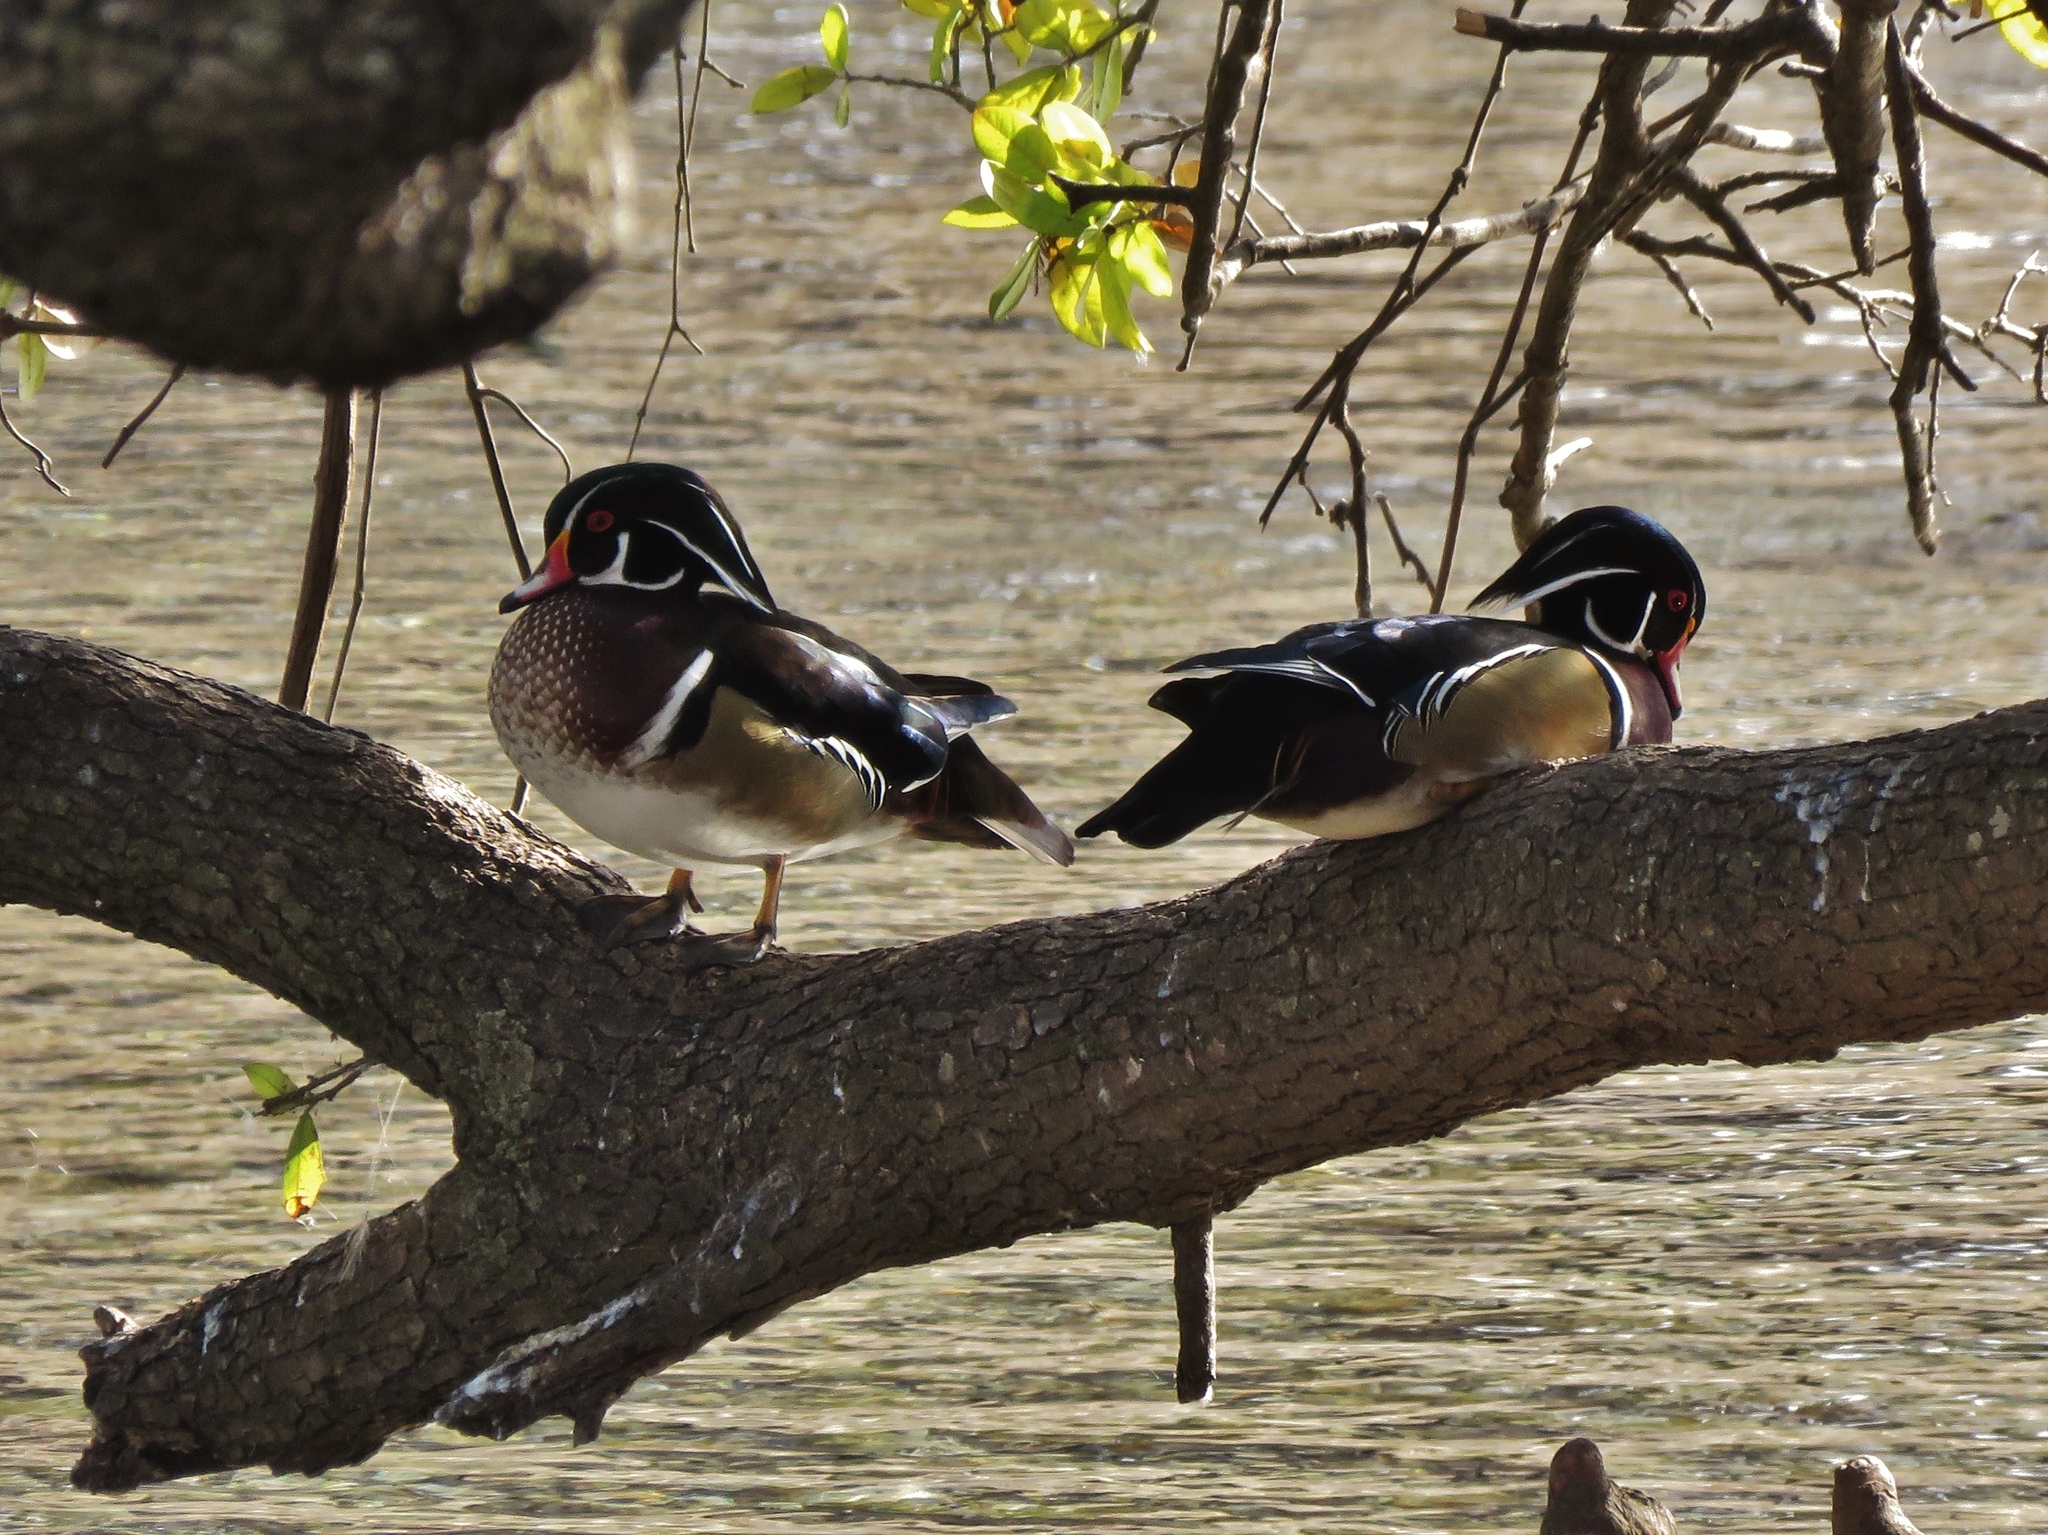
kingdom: Animalia
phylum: Chordata
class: Aves
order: Anseriformes
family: Anatidae
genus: Aix
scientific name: Aix sponsa
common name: Wood duck
